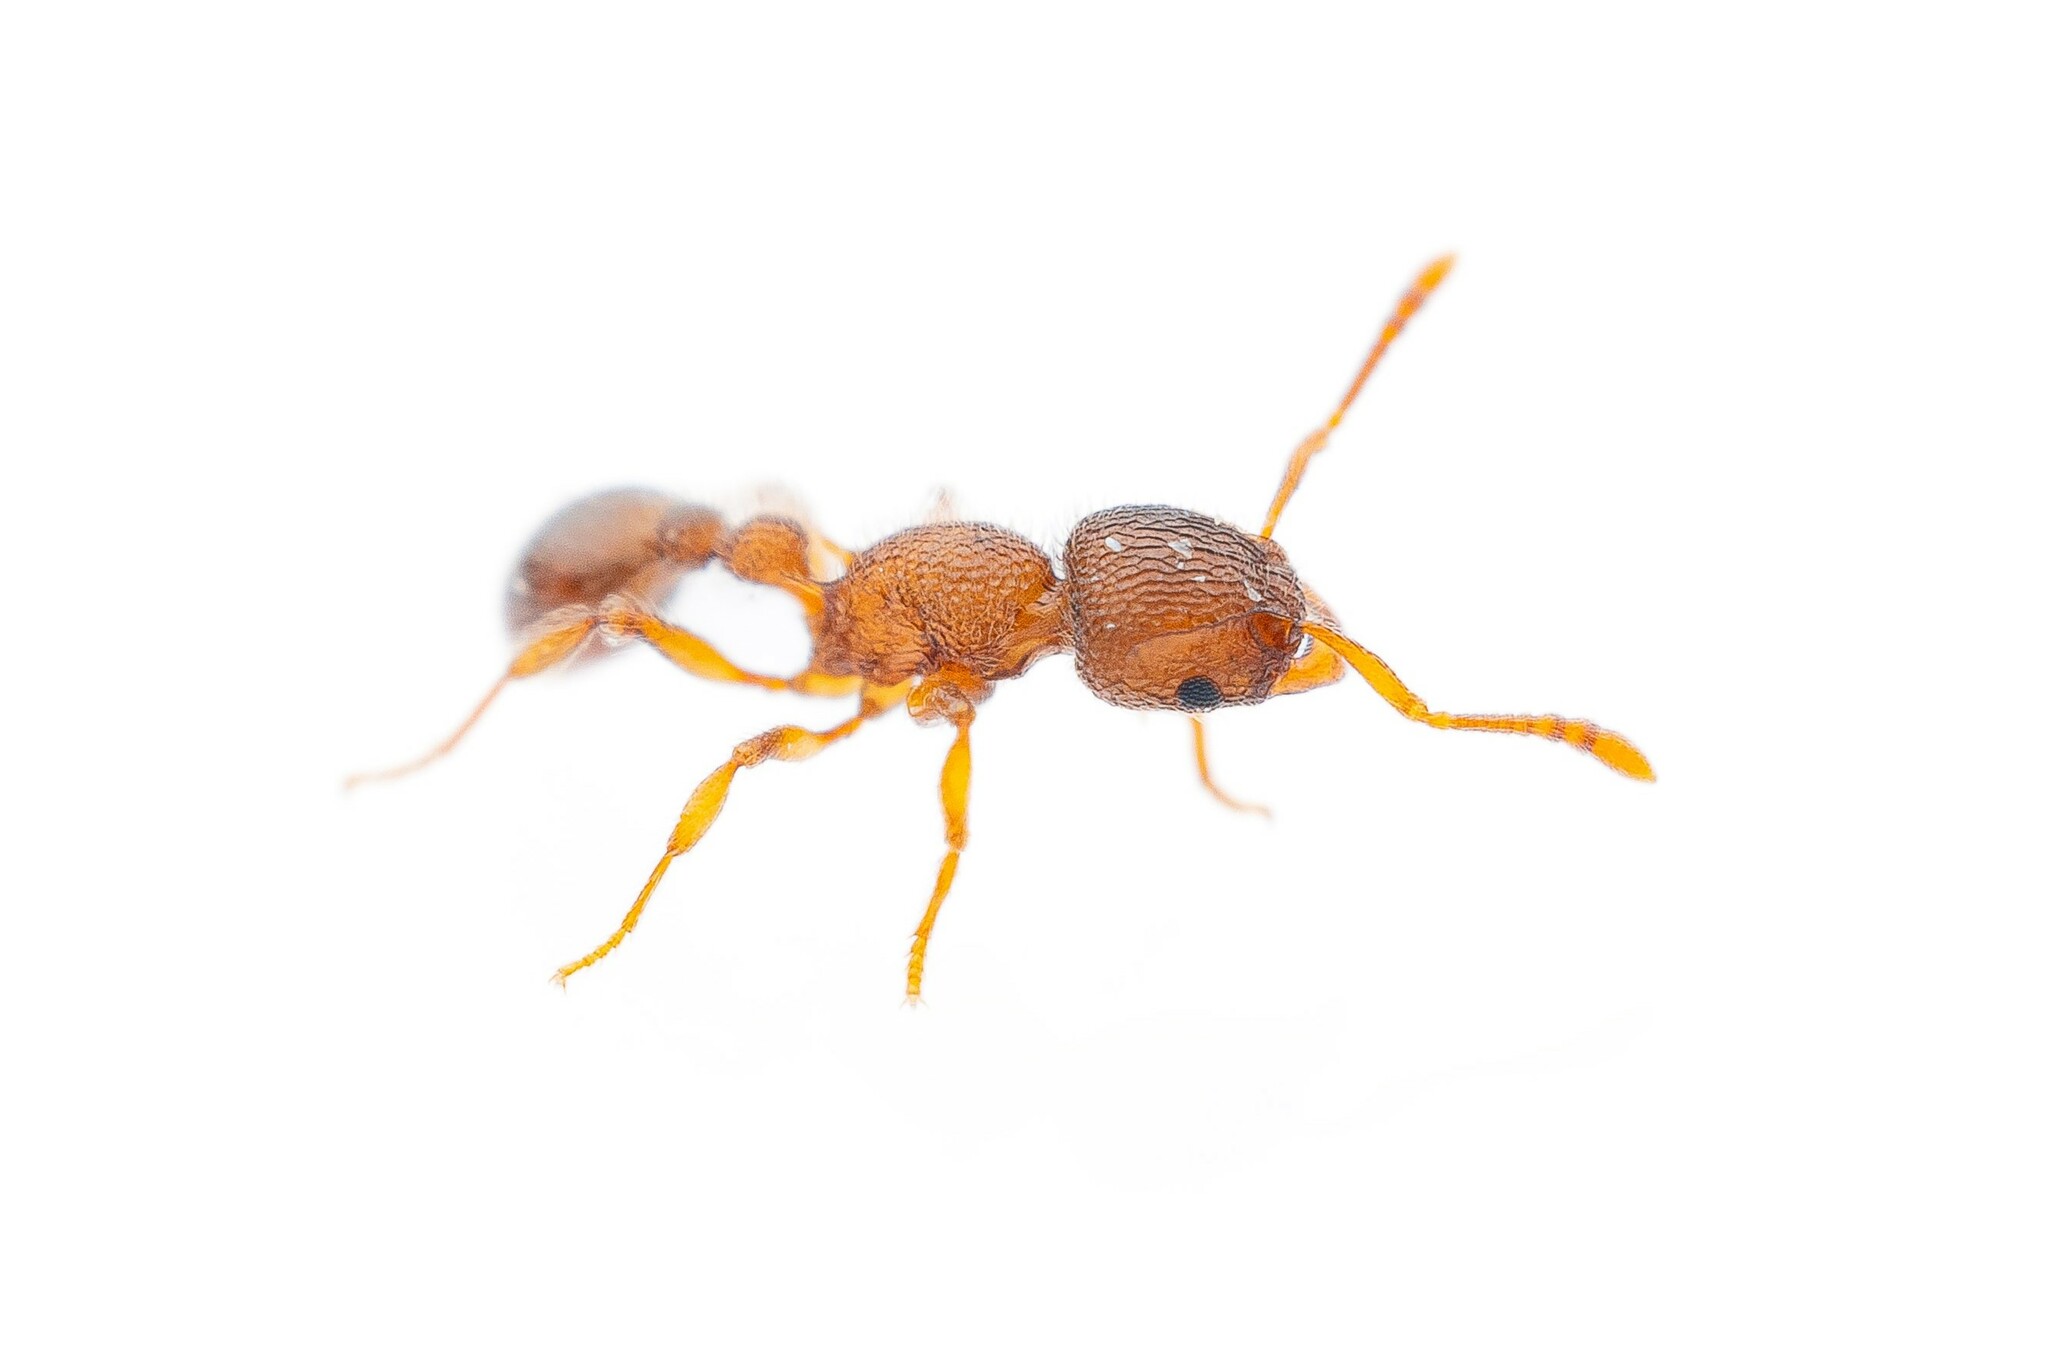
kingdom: Animalia
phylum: Arthropoda
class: Insecta
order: Hymenoptera
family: Formicidae
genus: Tetramorium
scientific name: Tetramorium lanuginosum
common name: Ant
